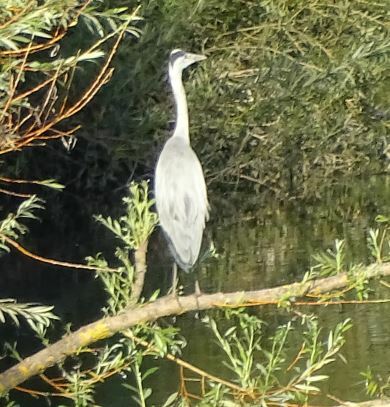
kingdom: Animalia
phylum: Chordata
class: Aves
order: Pelecaniformes
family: Ardeidae
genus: Ardea
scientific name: Ardea cinerea
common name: Grey heron
